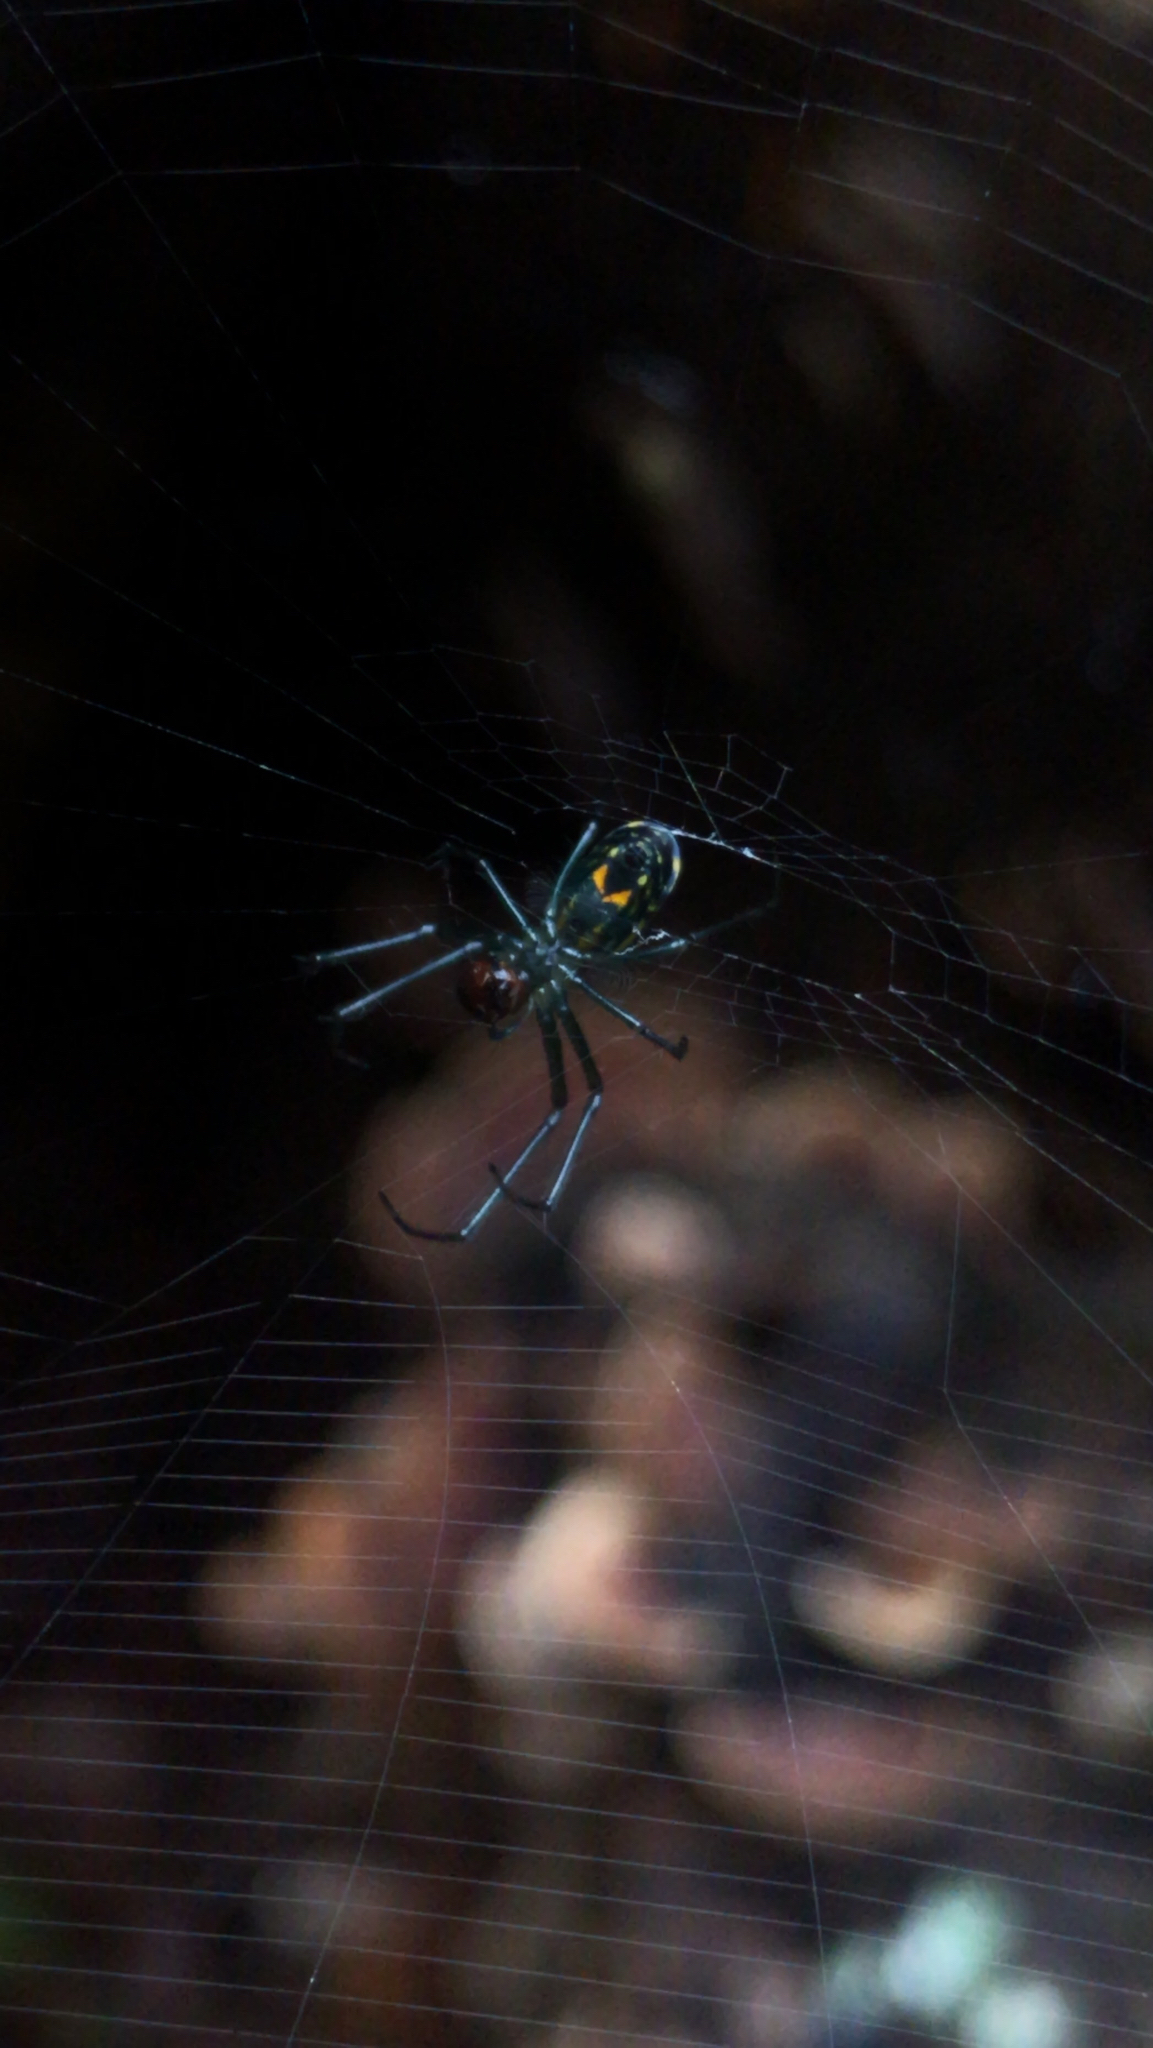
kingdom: Animalia
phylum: Arthropoda
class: Arachnida
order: Araneae
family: Tetragnathidae
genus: Leucauge
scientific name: Leucauge venusta
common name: Longjawed orb weavers
